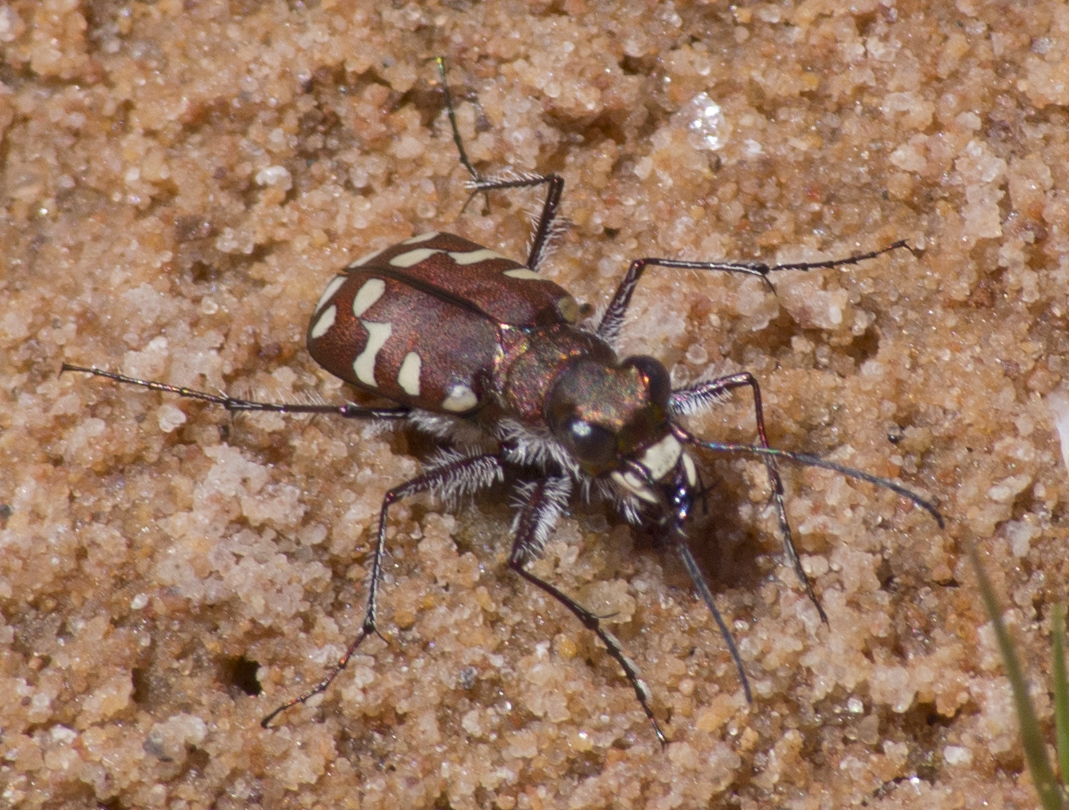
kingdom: Animalia
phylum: Arthropoda
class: Insecta
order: Coleoptera
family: Carabidae
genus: Cicindela
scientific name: Cicindela oregona
